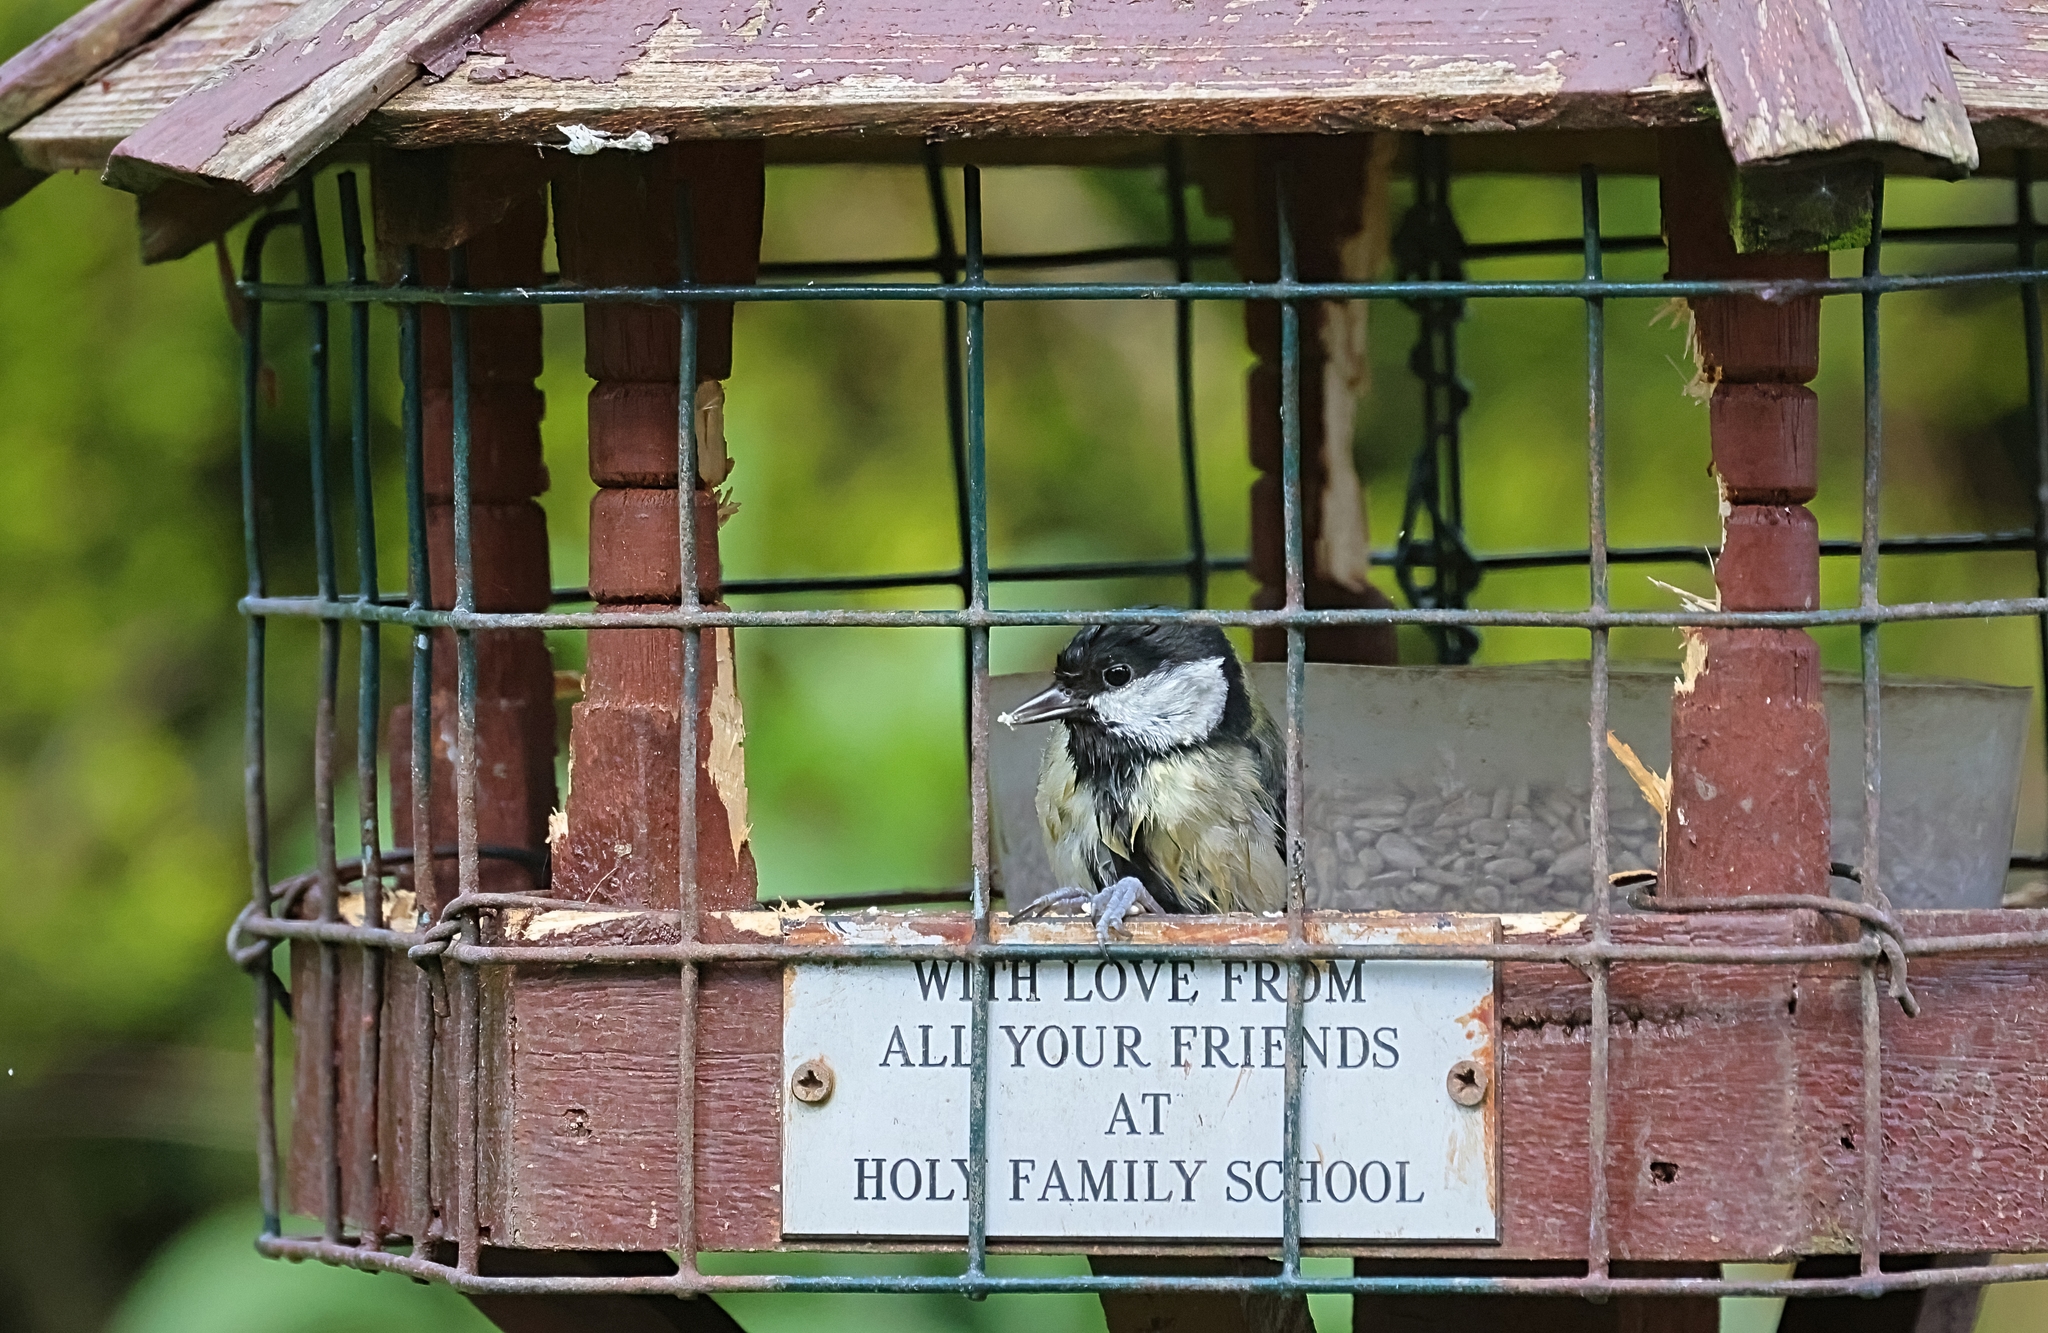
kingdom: Animalia
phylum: Chordata
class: Aves
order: Passeriformes
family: Paridae
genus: Parus
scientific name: Parus major
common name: Great tit
